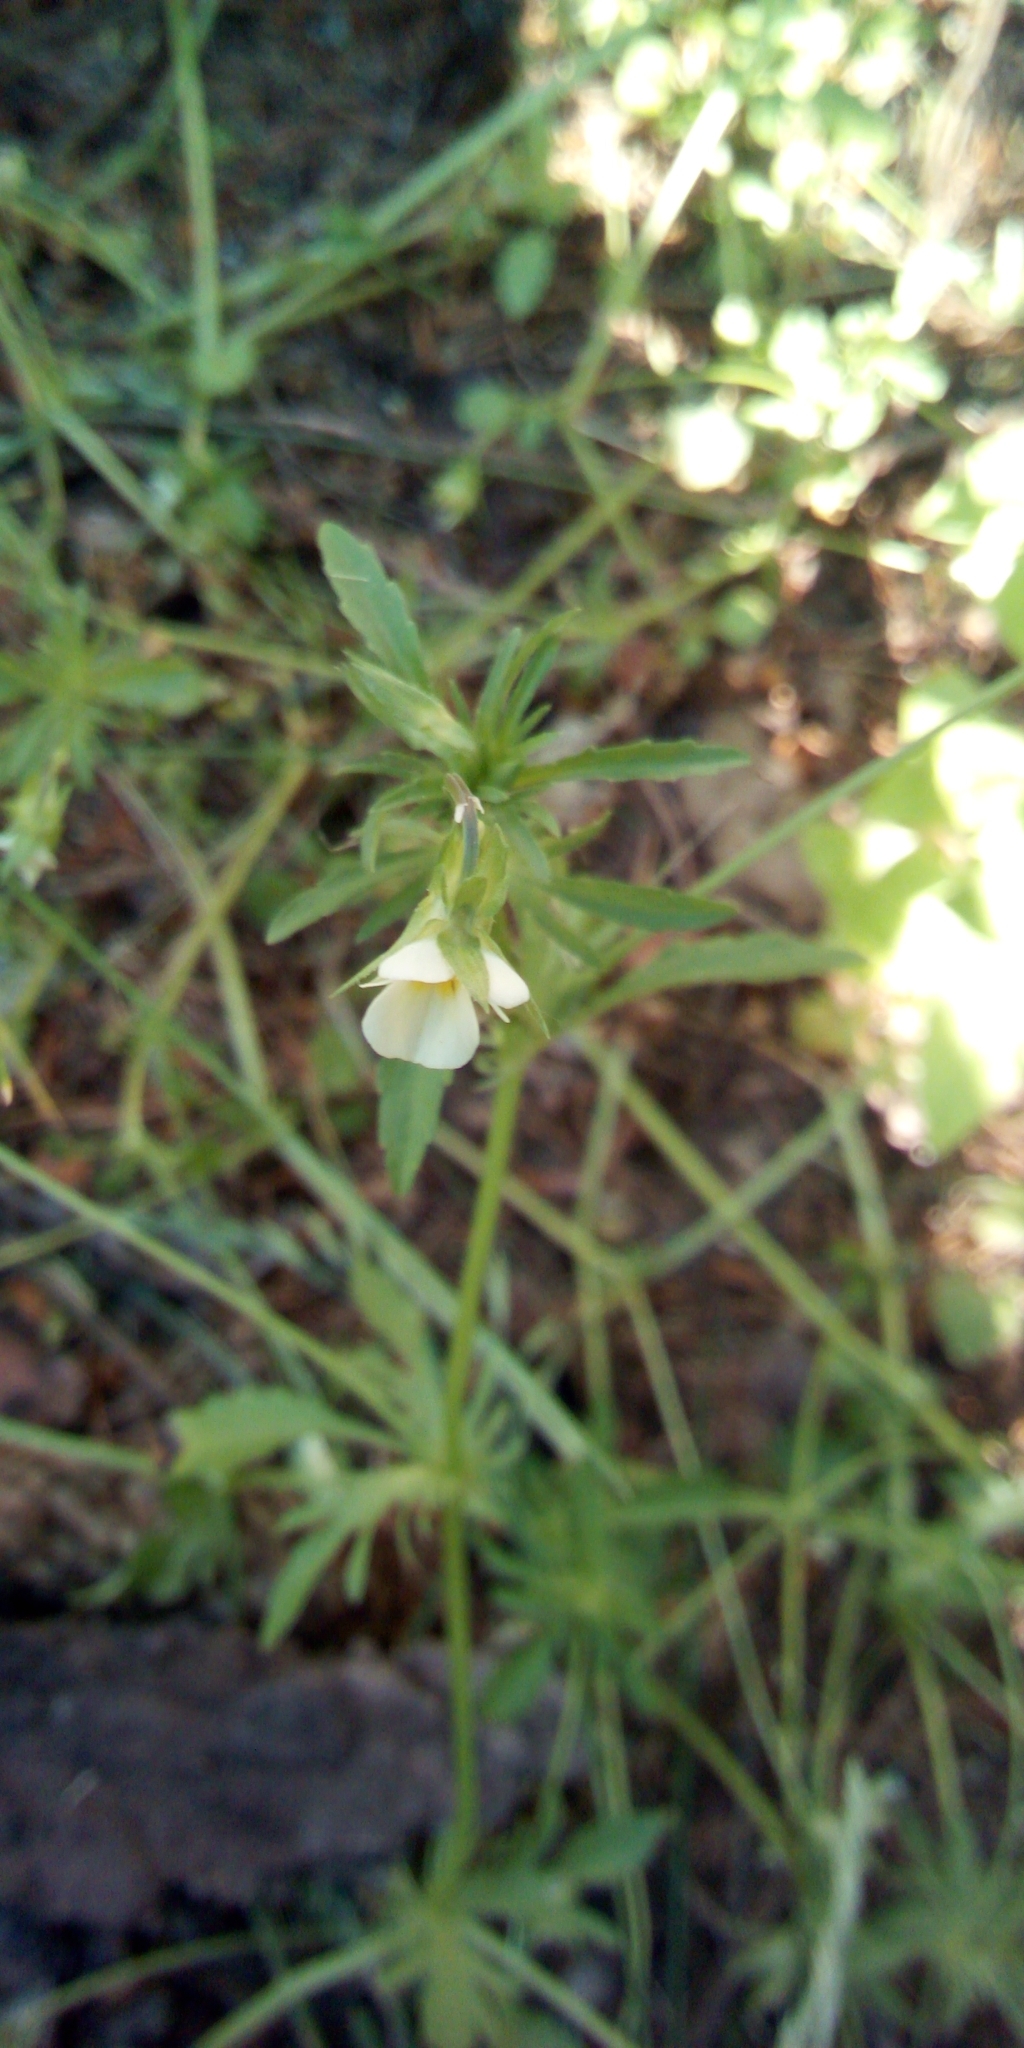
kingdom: Plantae
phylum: Tracheophyta
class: Magnoliopsida
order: Malpighiales
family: Violaceae
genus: Viola
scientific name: Viola arvensis
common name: Field pansy
